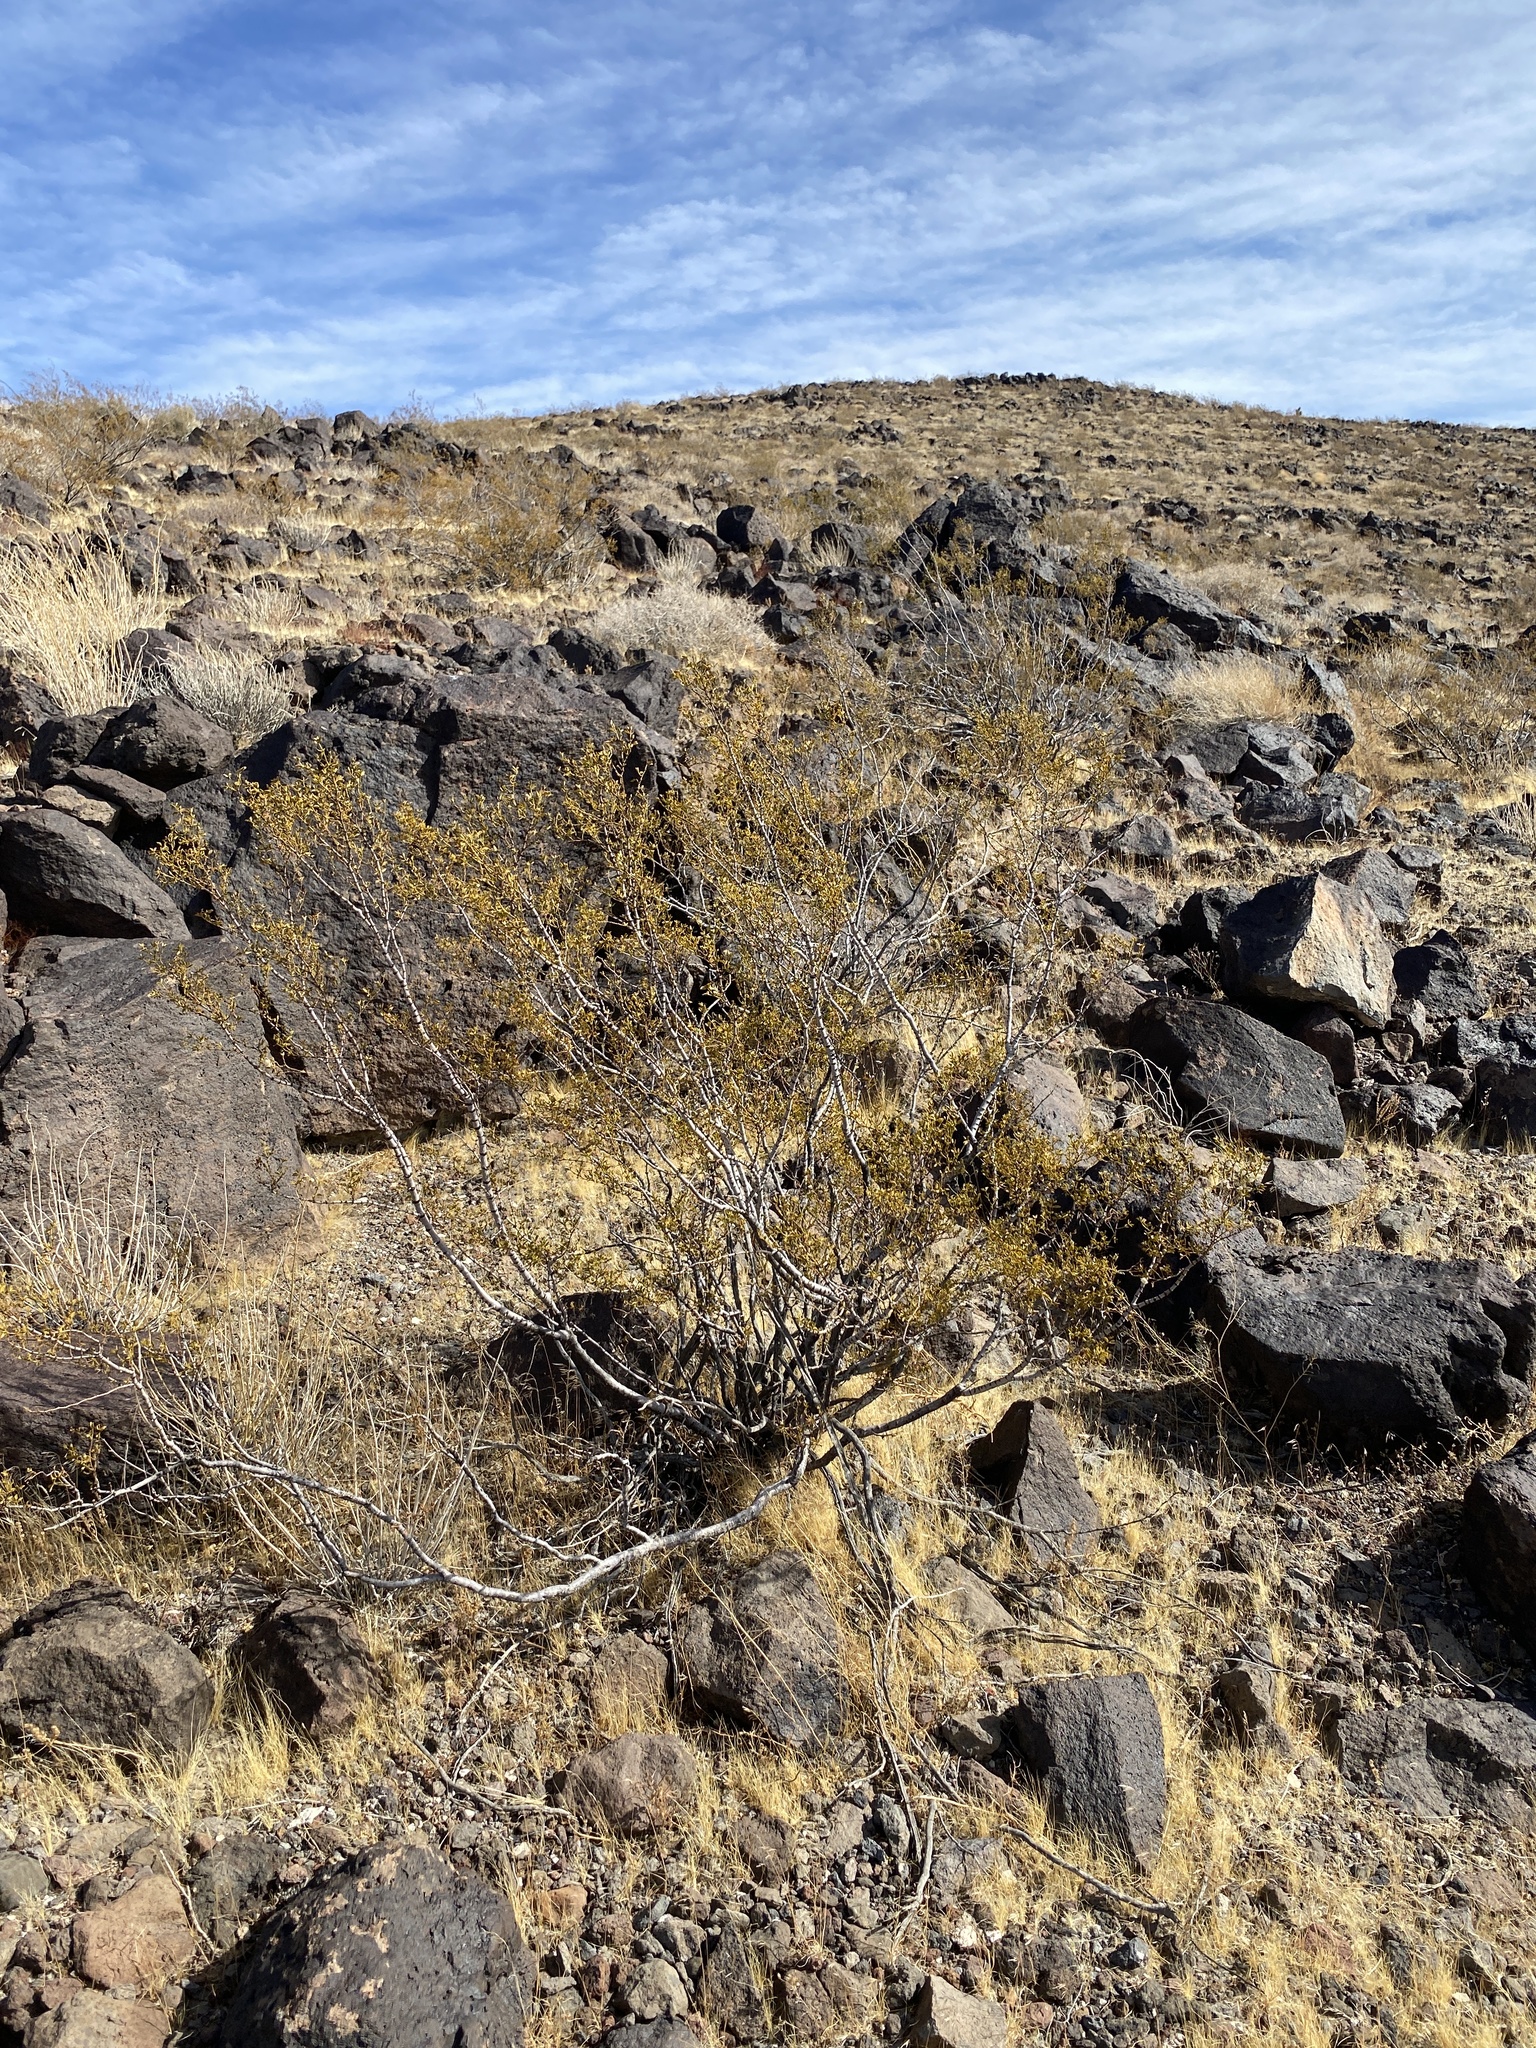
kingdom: Plantae
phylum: Tracheophyta
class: Magnoliopsida
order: Zygophyllales
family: Zygophyllaceae
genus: Larrea
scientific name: Larrea tridentata
